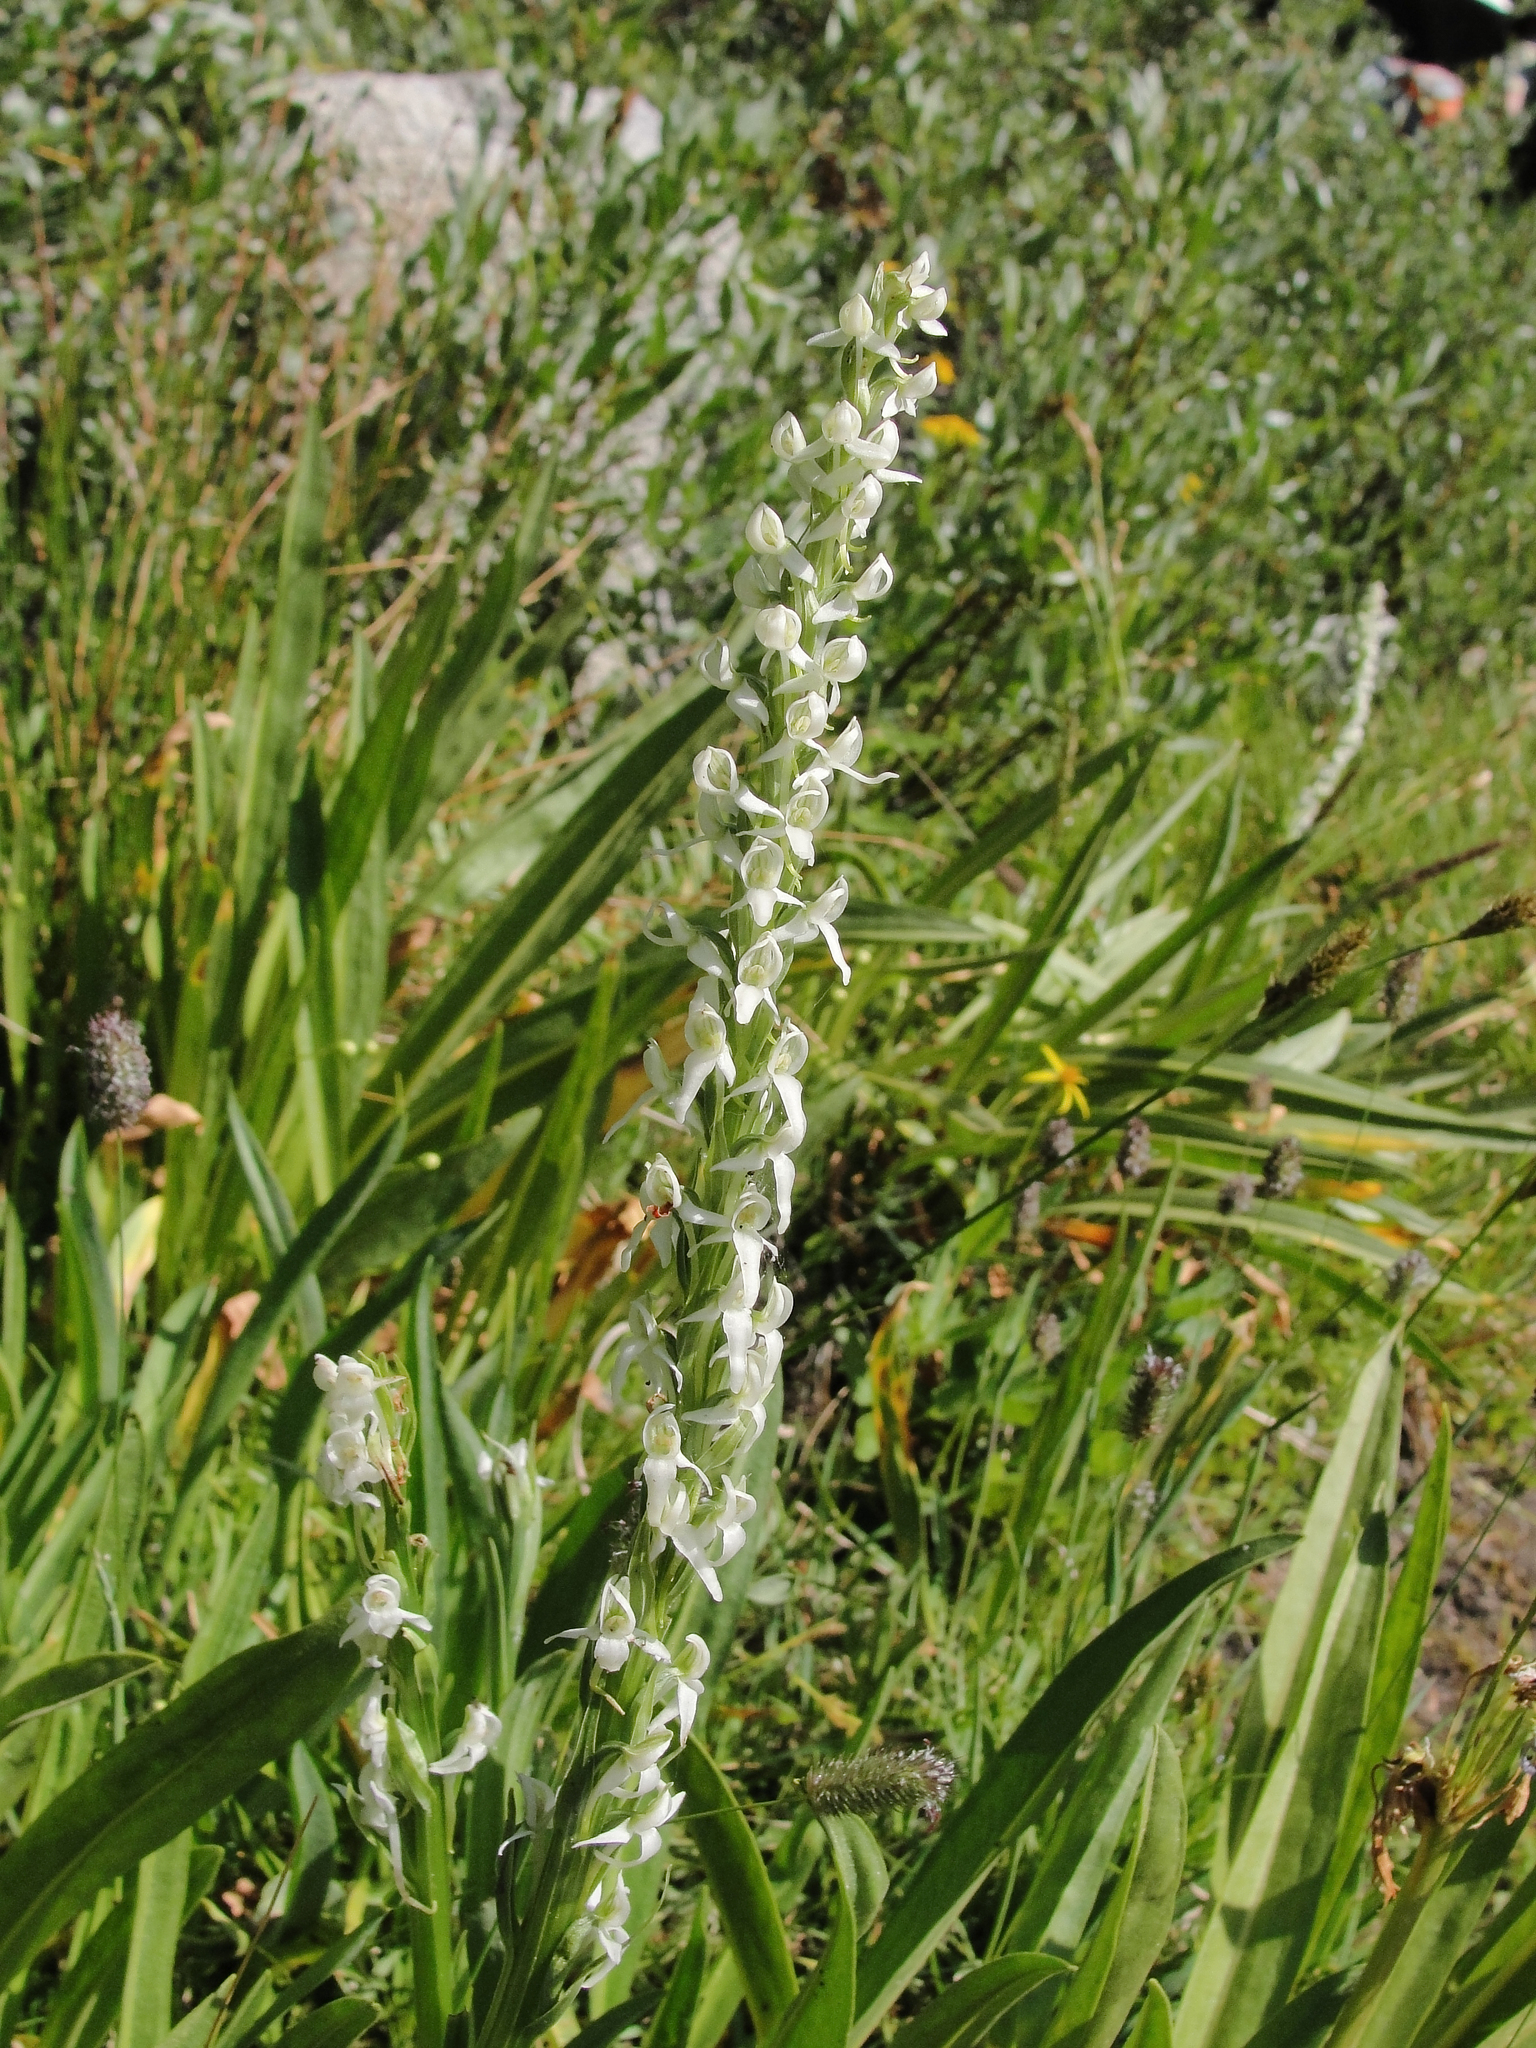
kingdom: Plantae
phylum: Tracheophyta
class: Liliopsida
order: Asparagales
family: Orchidaceae
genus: Platanthera
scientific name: Platanthera dilatata
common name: Bog candles
